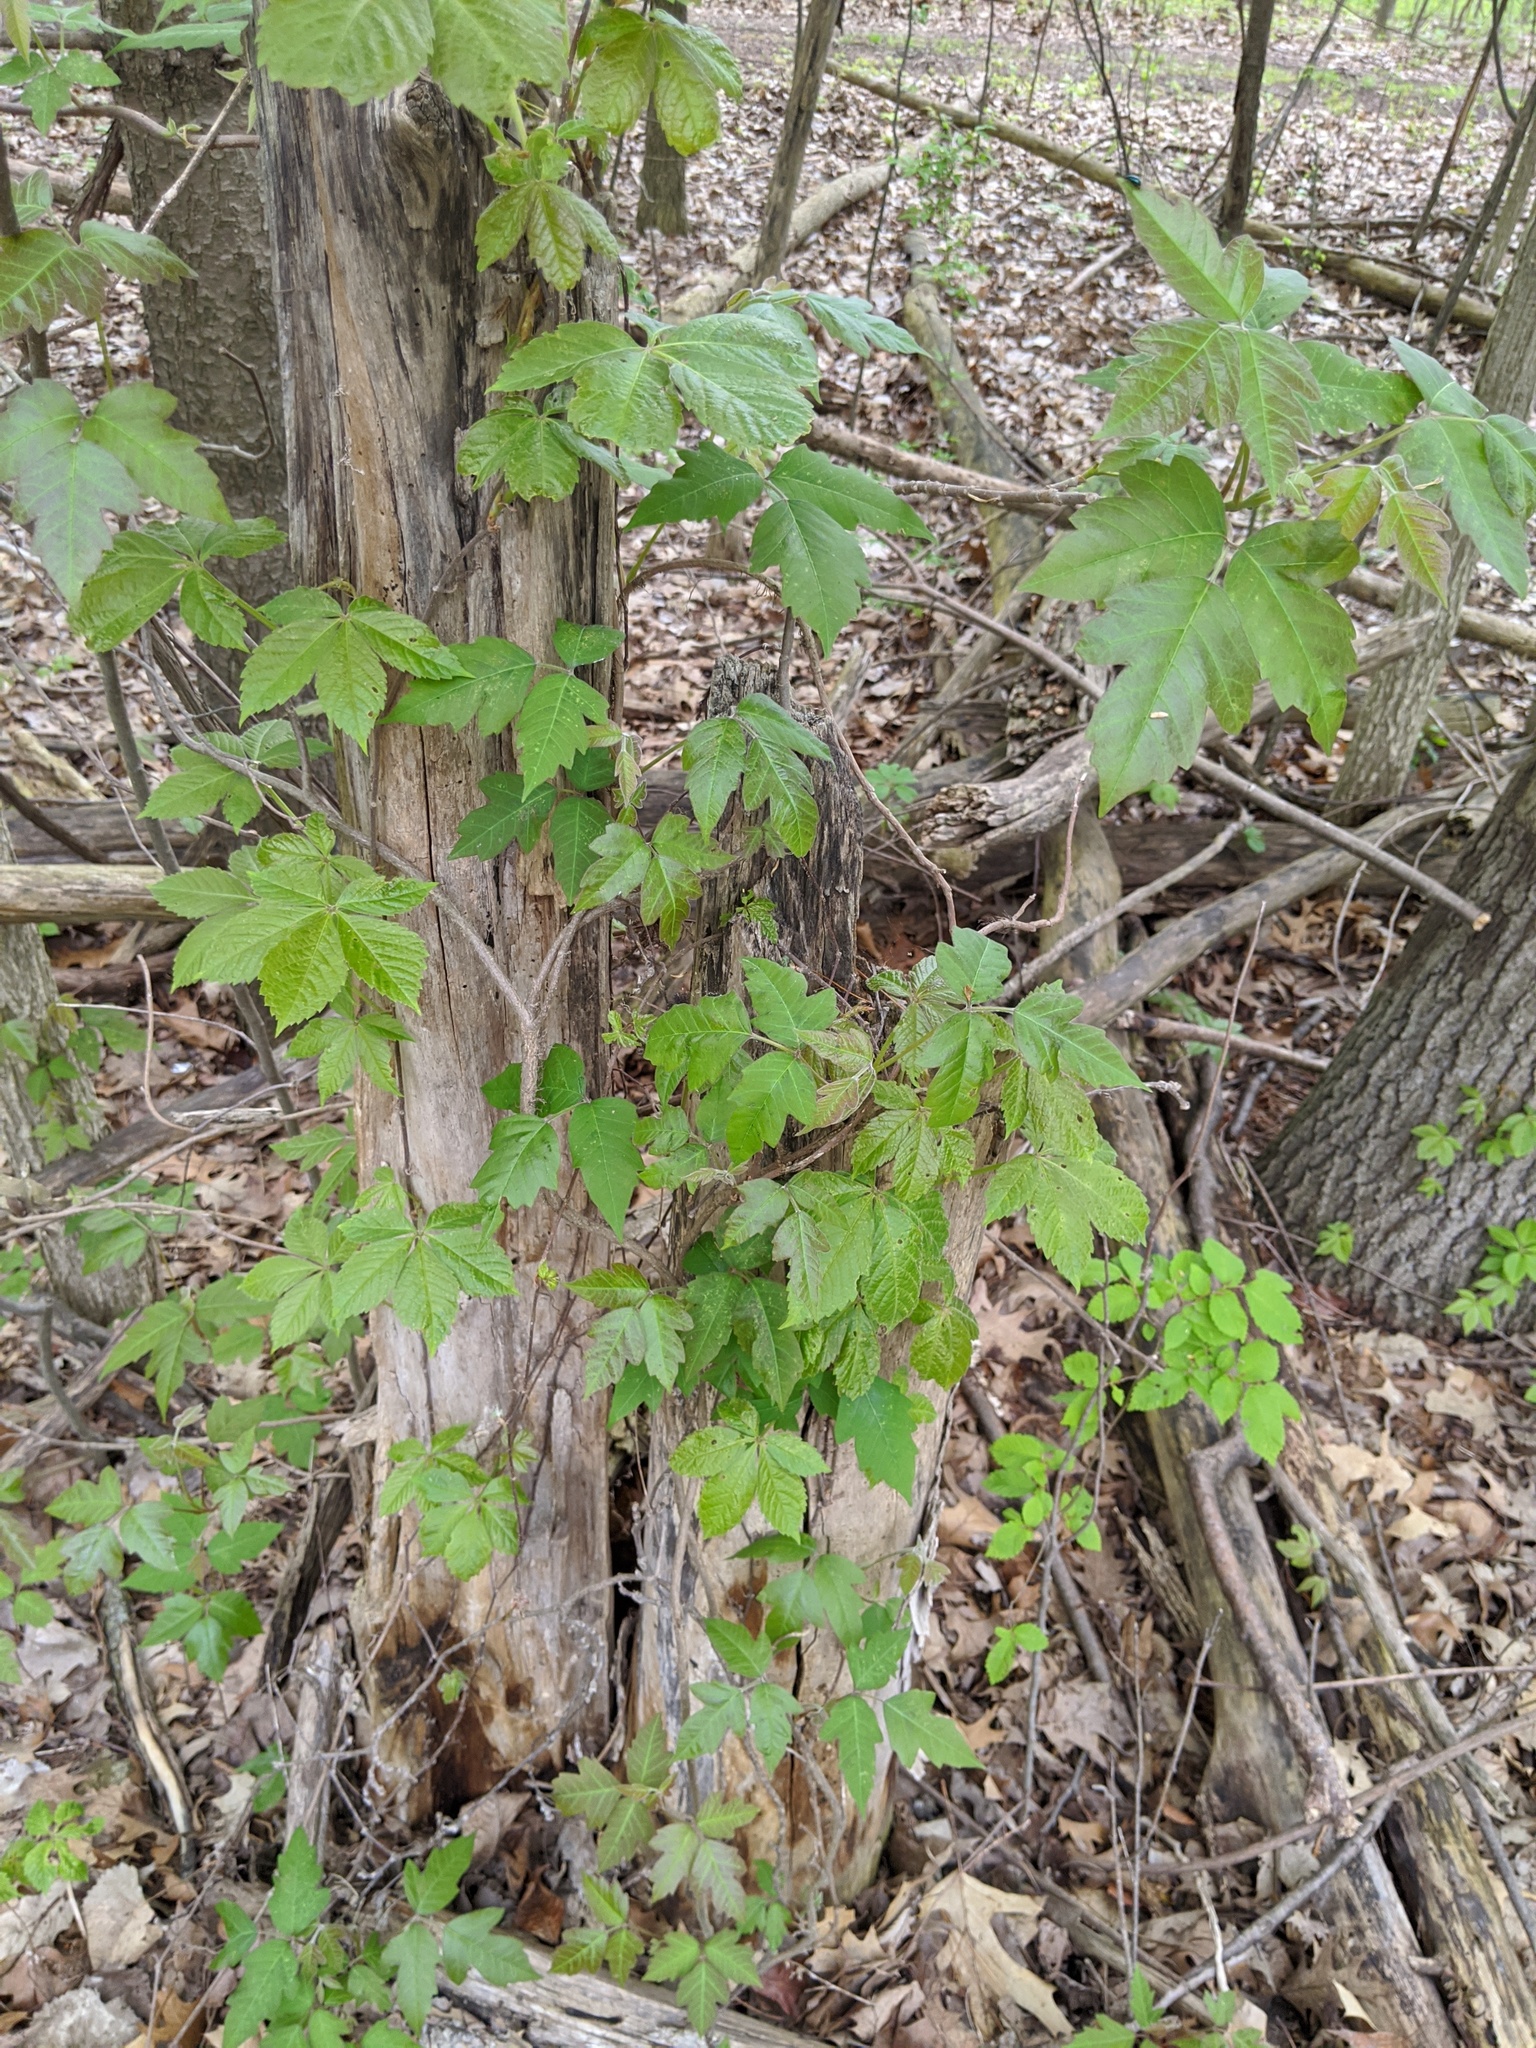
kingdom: Plantae
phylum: Tracheophyta
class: Magnoliopsida
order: Sapindales
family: Anacardiaceae
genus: Toxicodendron
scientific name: Toxicodendron radicans
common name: Poison ivy
